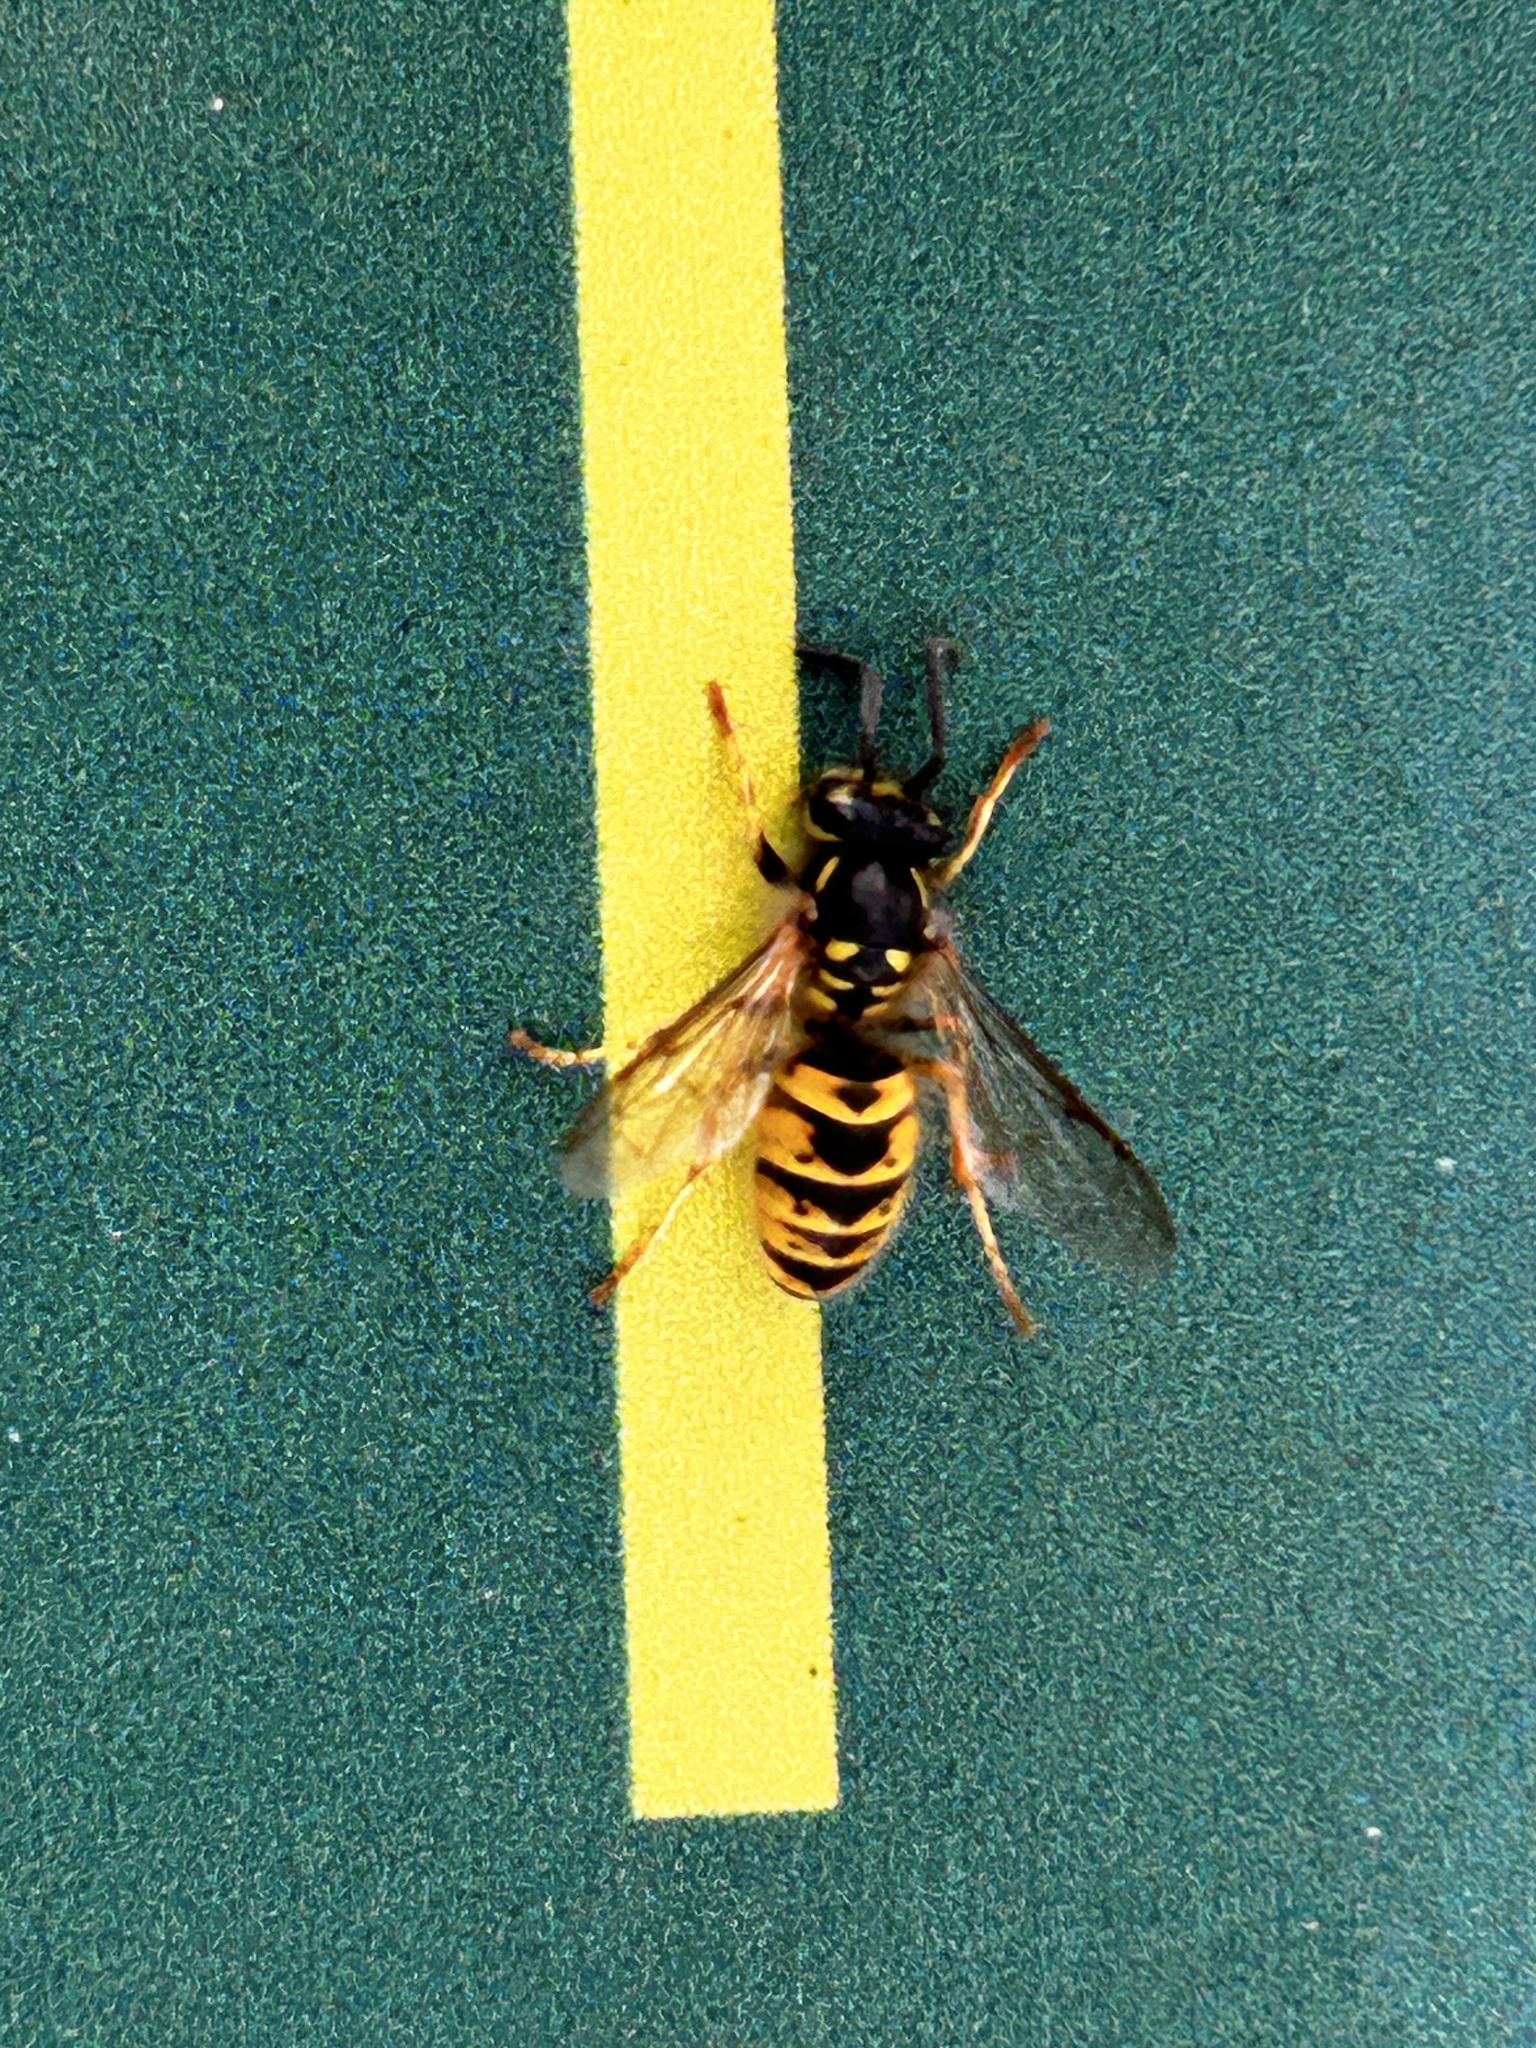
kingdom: Animalia
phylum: Arthropoda
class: Insecta
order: Hymenoptera
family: Vespidae
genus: Vespula
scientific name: Vespula vulgaris
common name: Common wasp
